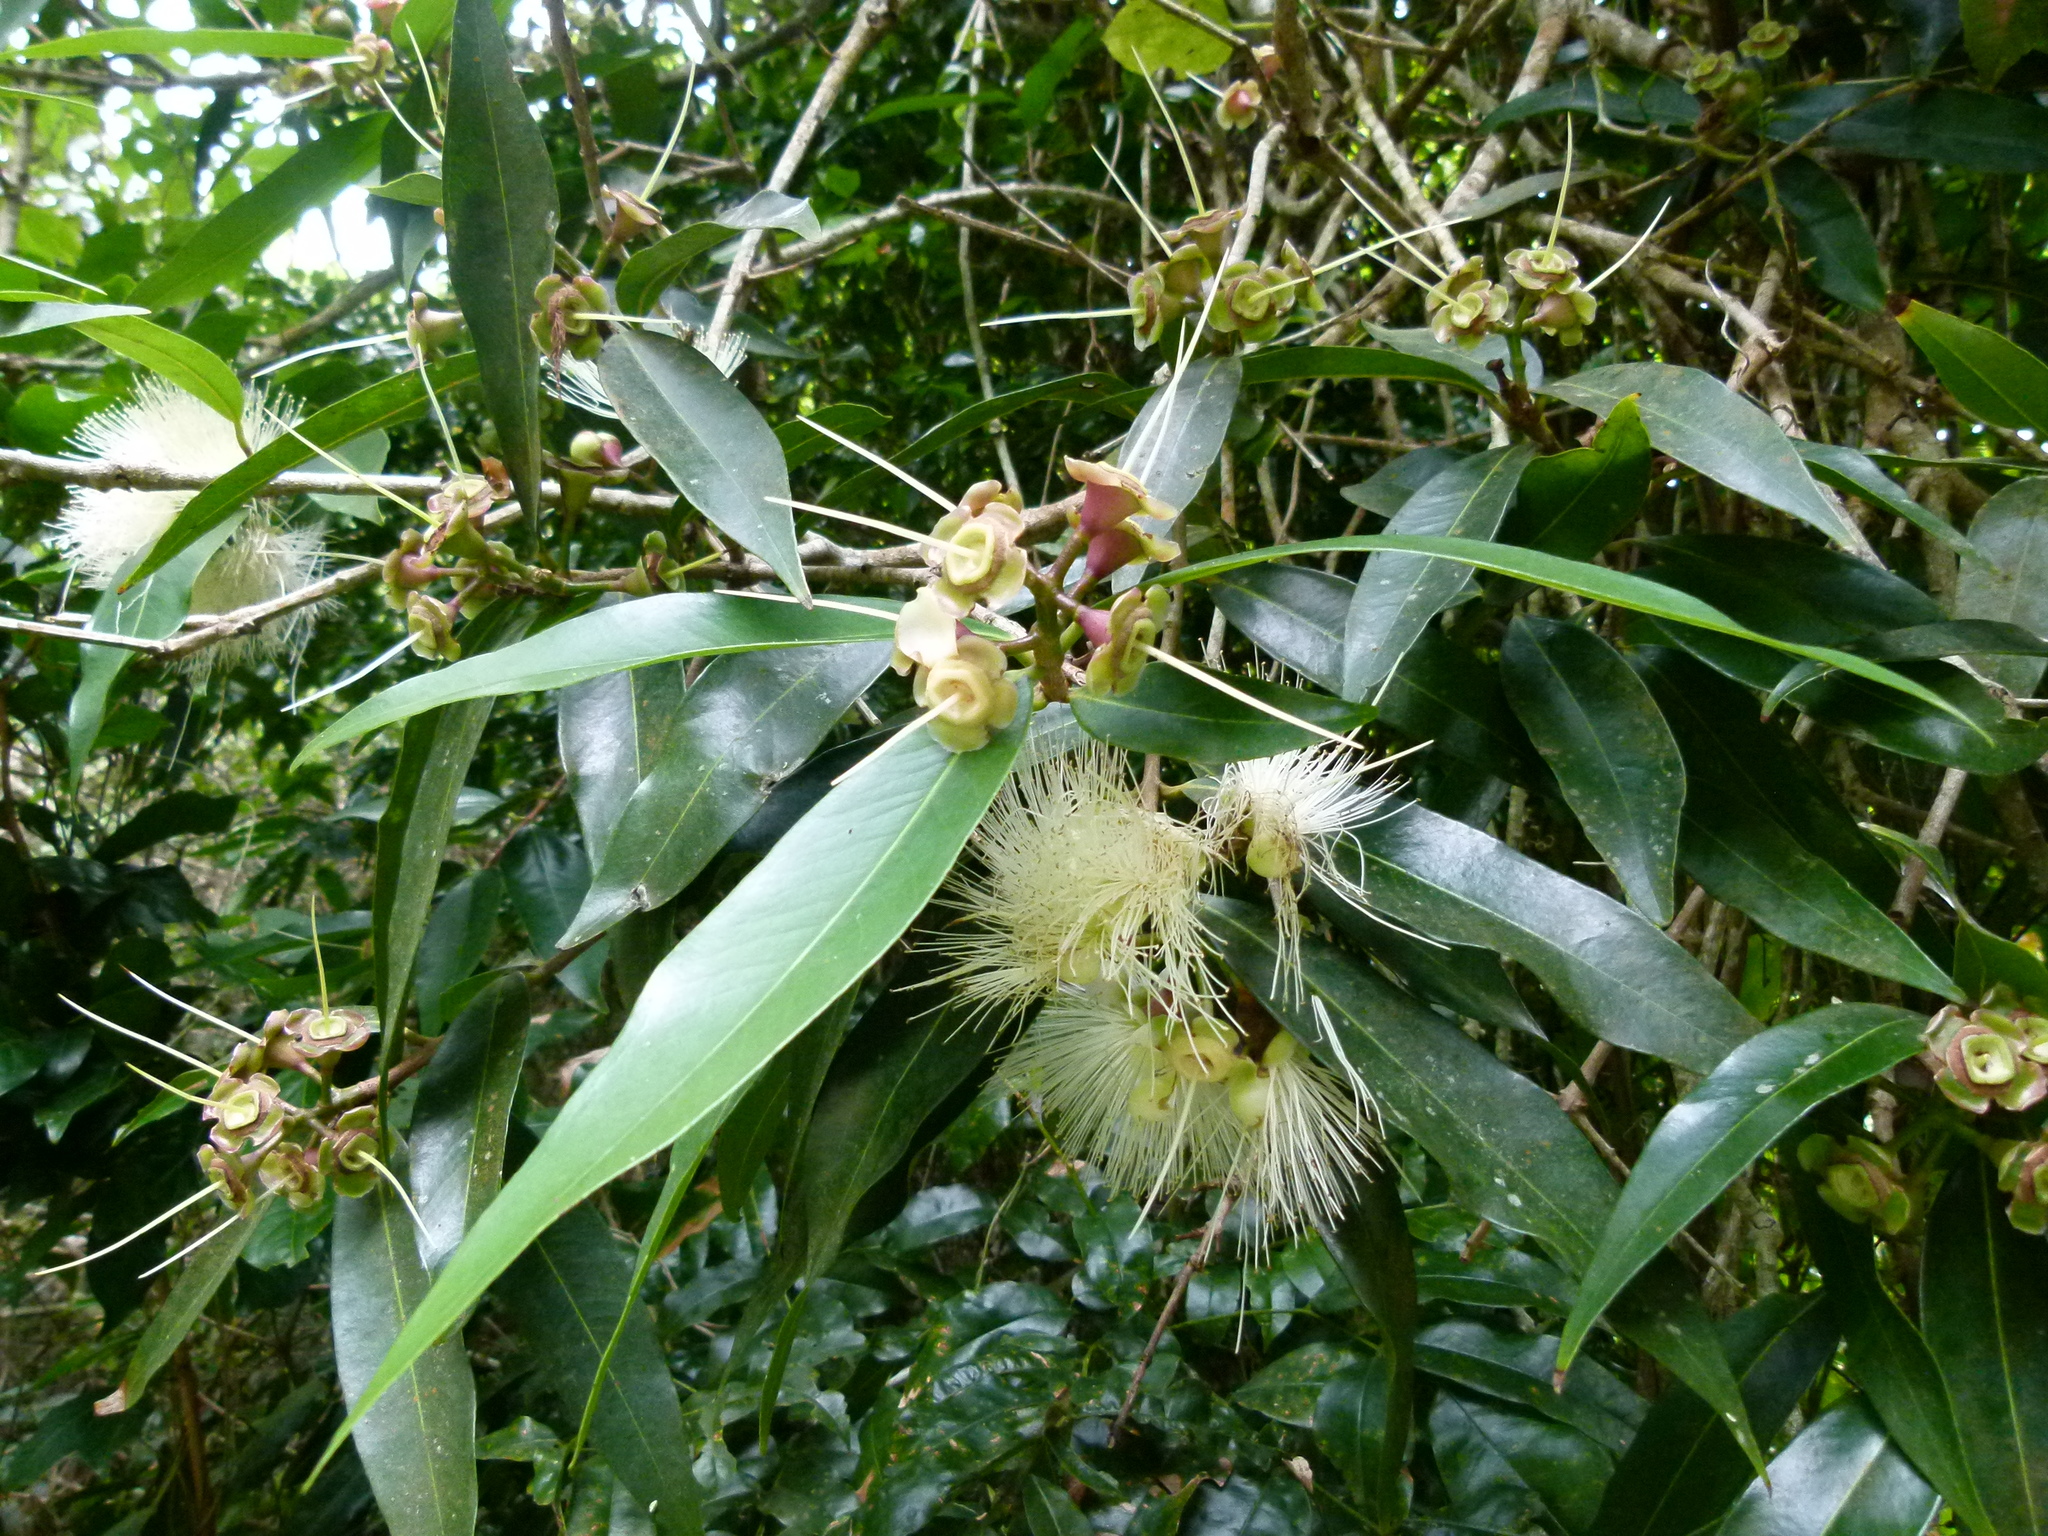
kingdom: Plantae
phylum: Tracheophyta
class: Magnoliopsida
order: Myrtales
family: Myrtaceae
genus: Syzygium
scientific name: Syzygium jambos
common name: Malabar plum
